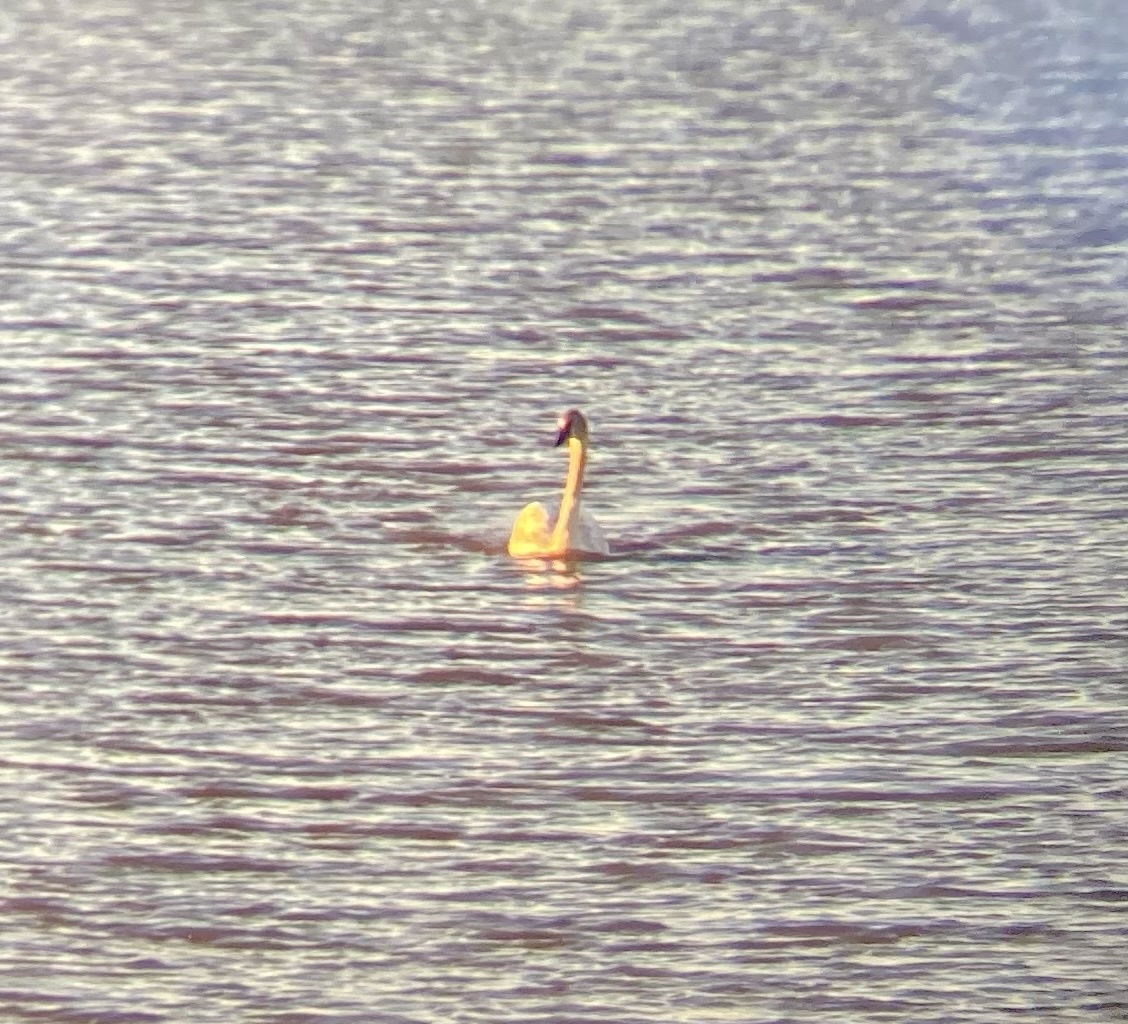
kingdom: Animalia
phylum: Chordata
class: Aves
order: Anseriformes
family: Anatidae
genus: Cygnus
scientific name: Cygnus buccinator
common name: Trumpeter swan
